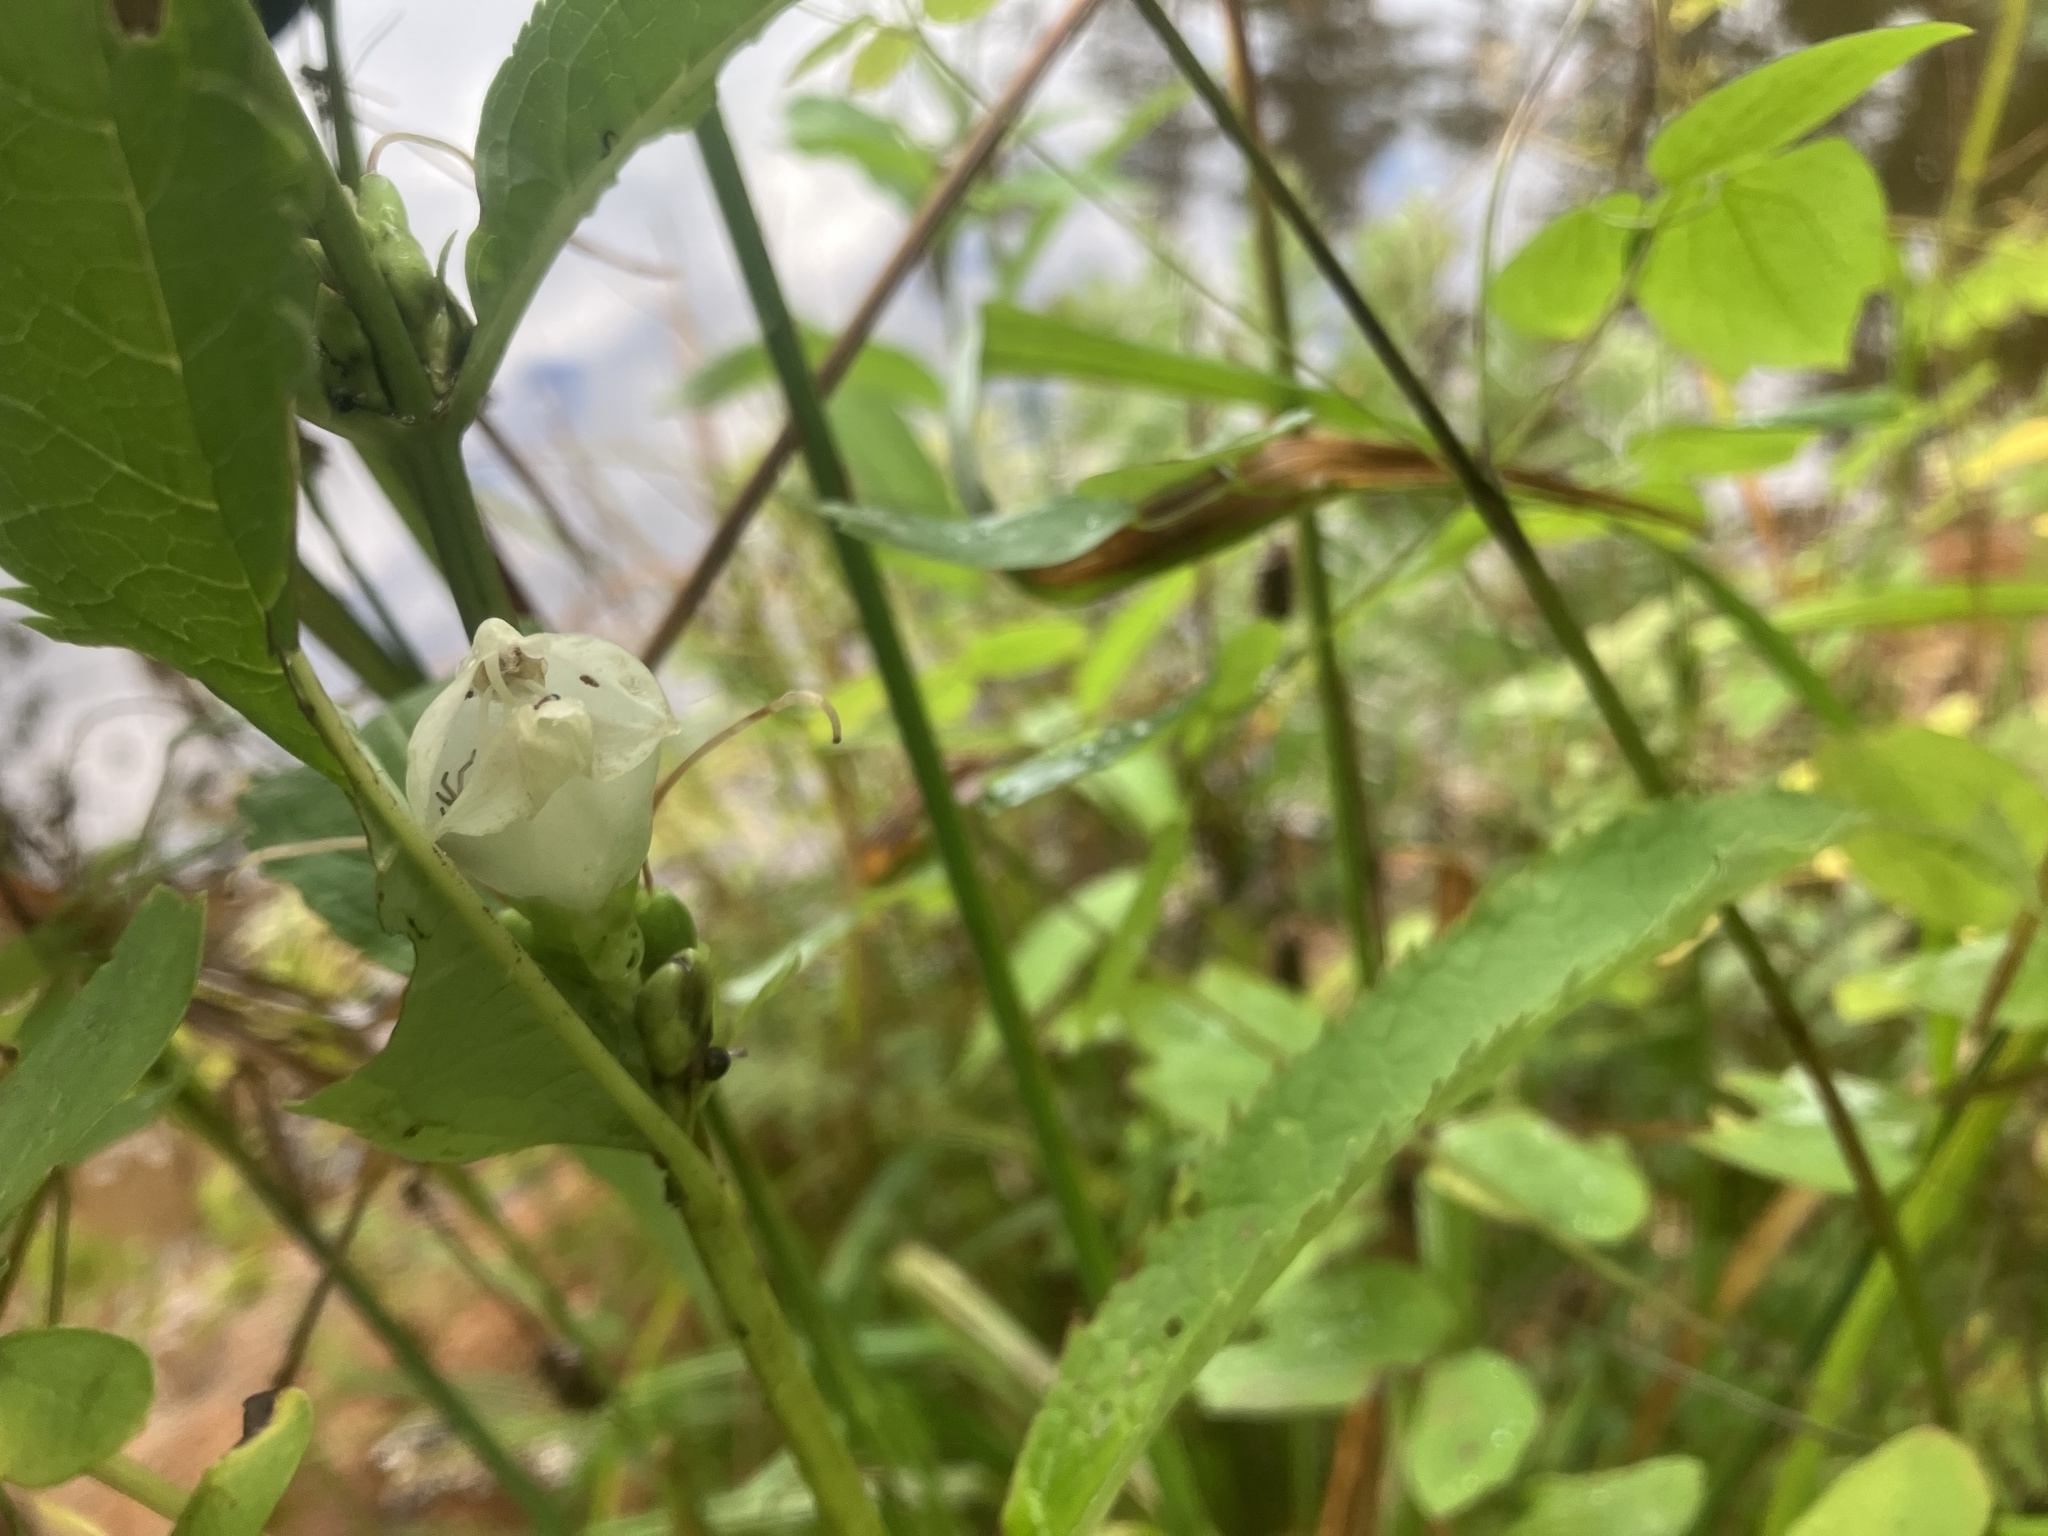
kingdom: Plantae
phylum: Tracheophyta
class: Magnoliopsida
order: Lamiales
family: Plantaginaceae
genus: Chelone
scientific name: Chelone glabra
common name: Snakehead
